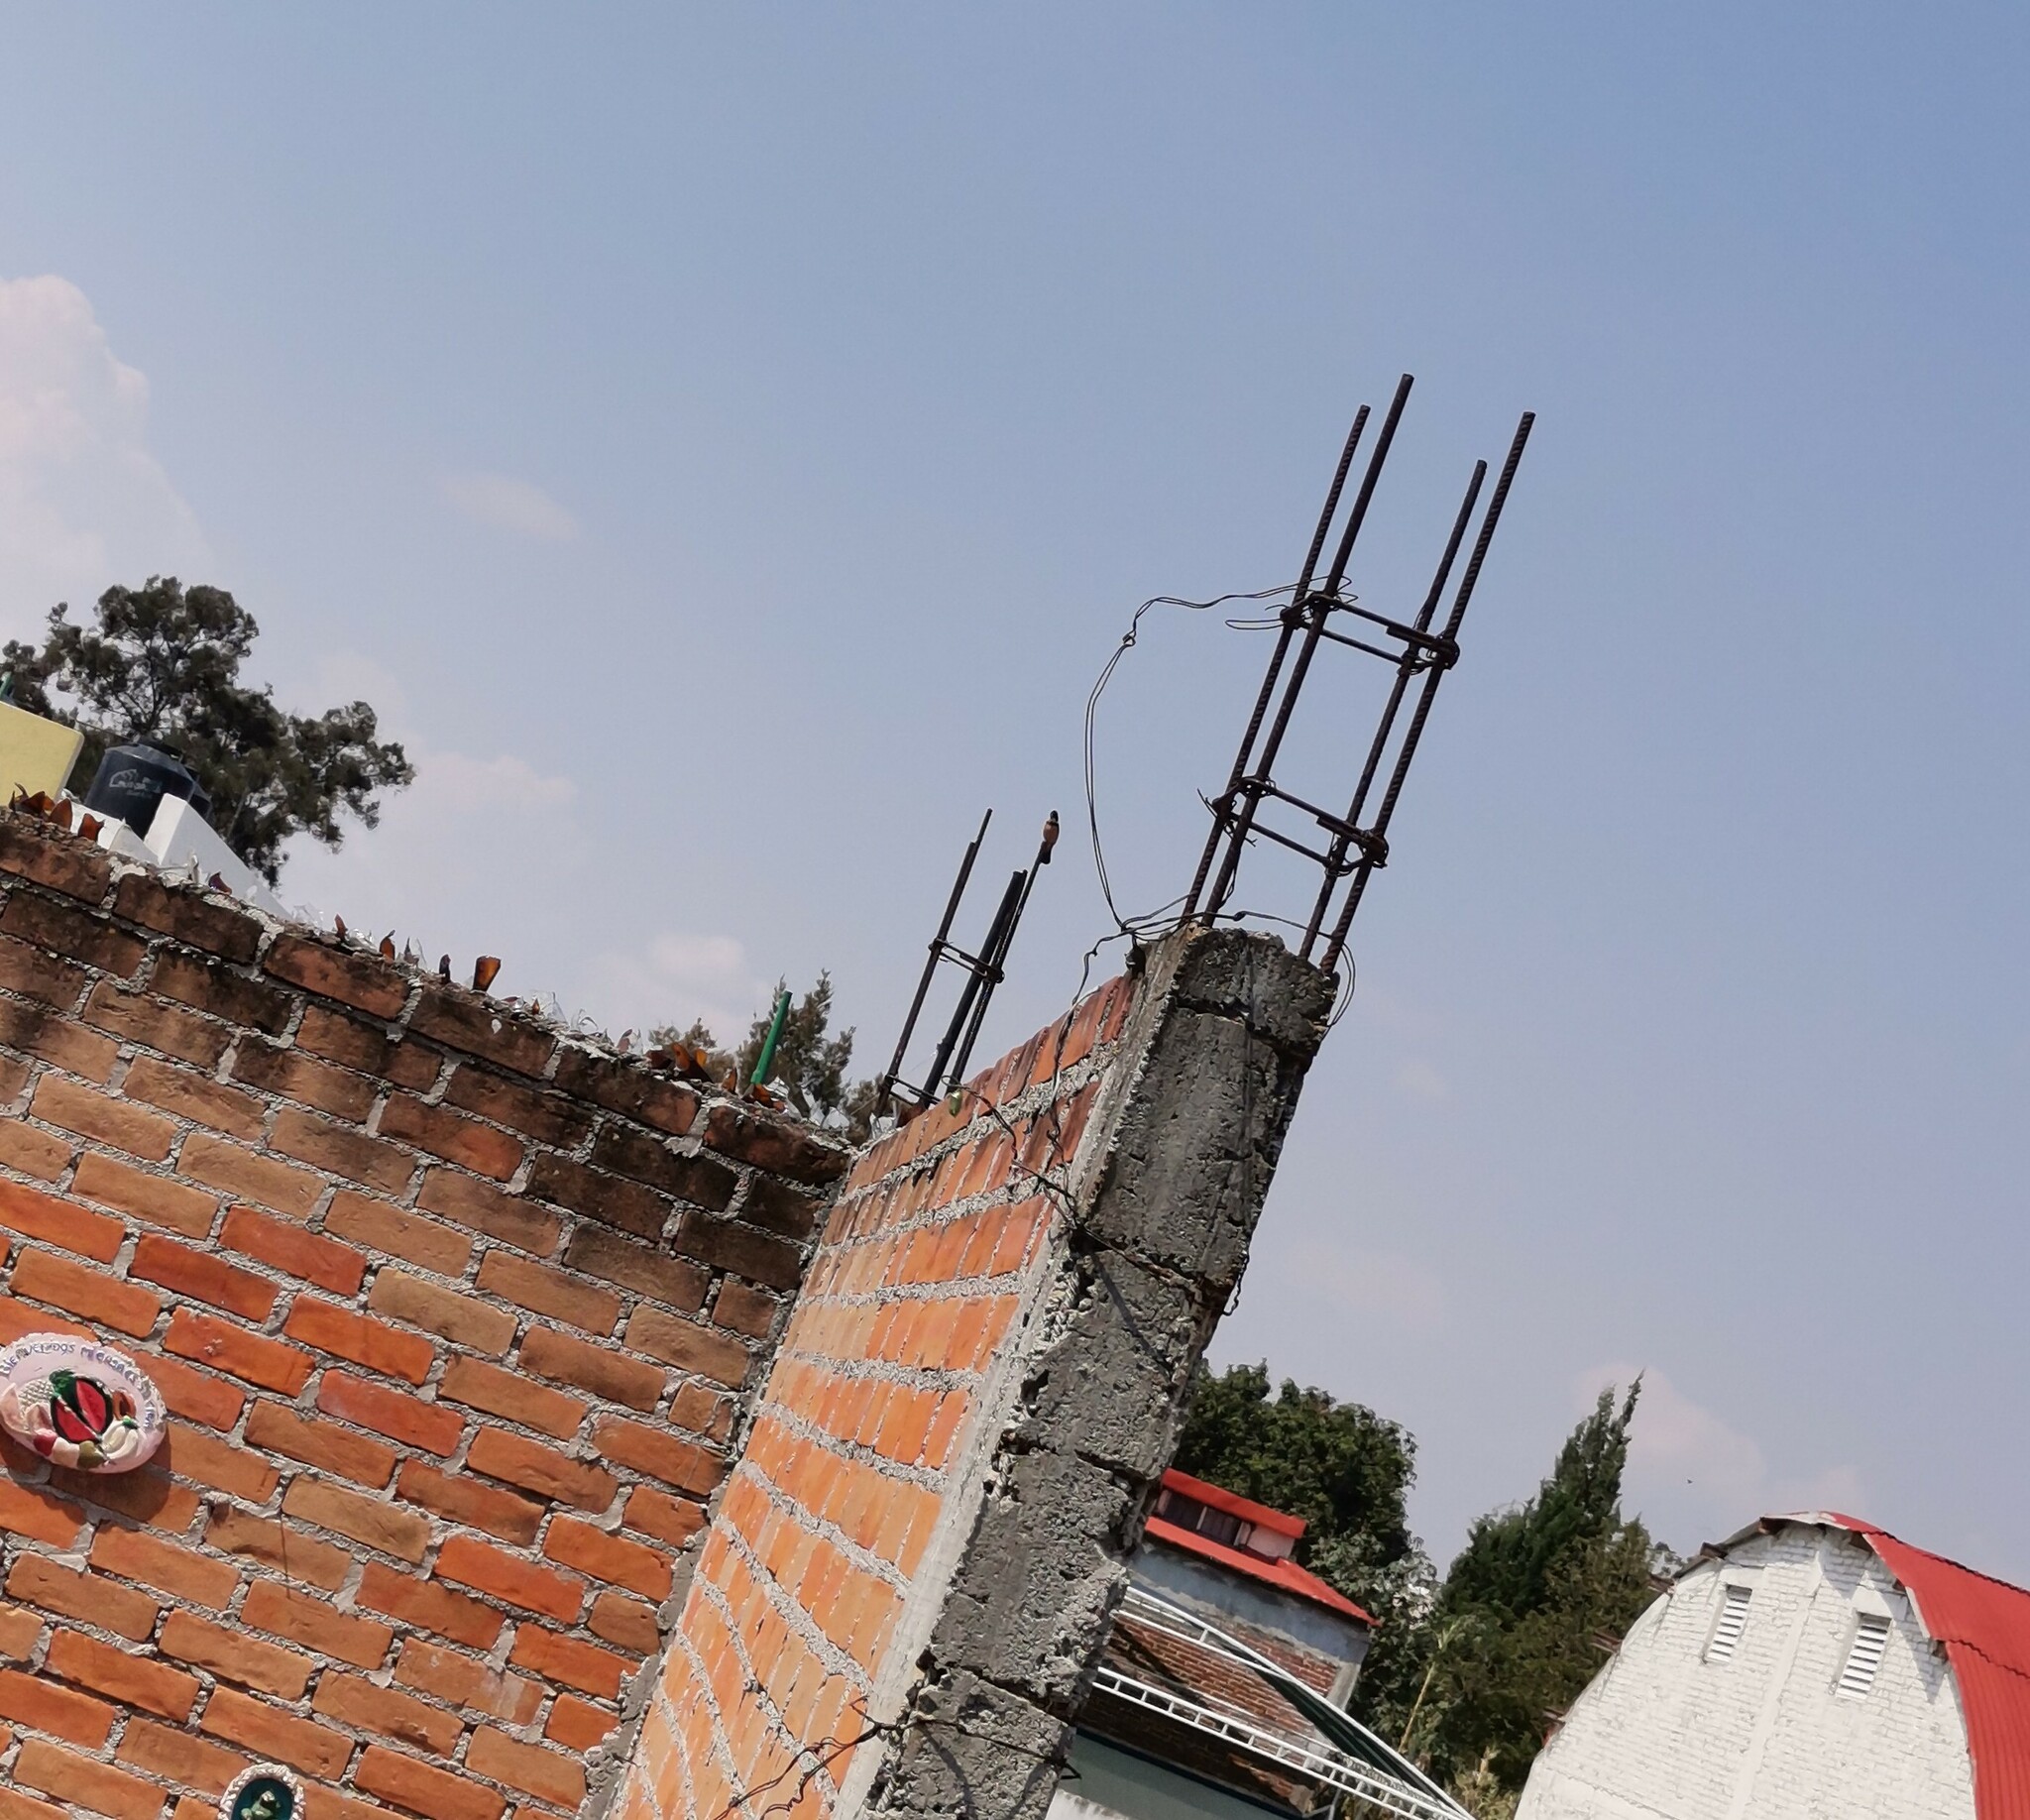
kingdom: Animalia
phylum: Chordata
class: Aves
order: Passeriformes
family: Thraupidae
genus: Sporophila
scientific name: Sporophila torqueola
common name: White-collared seedeater
